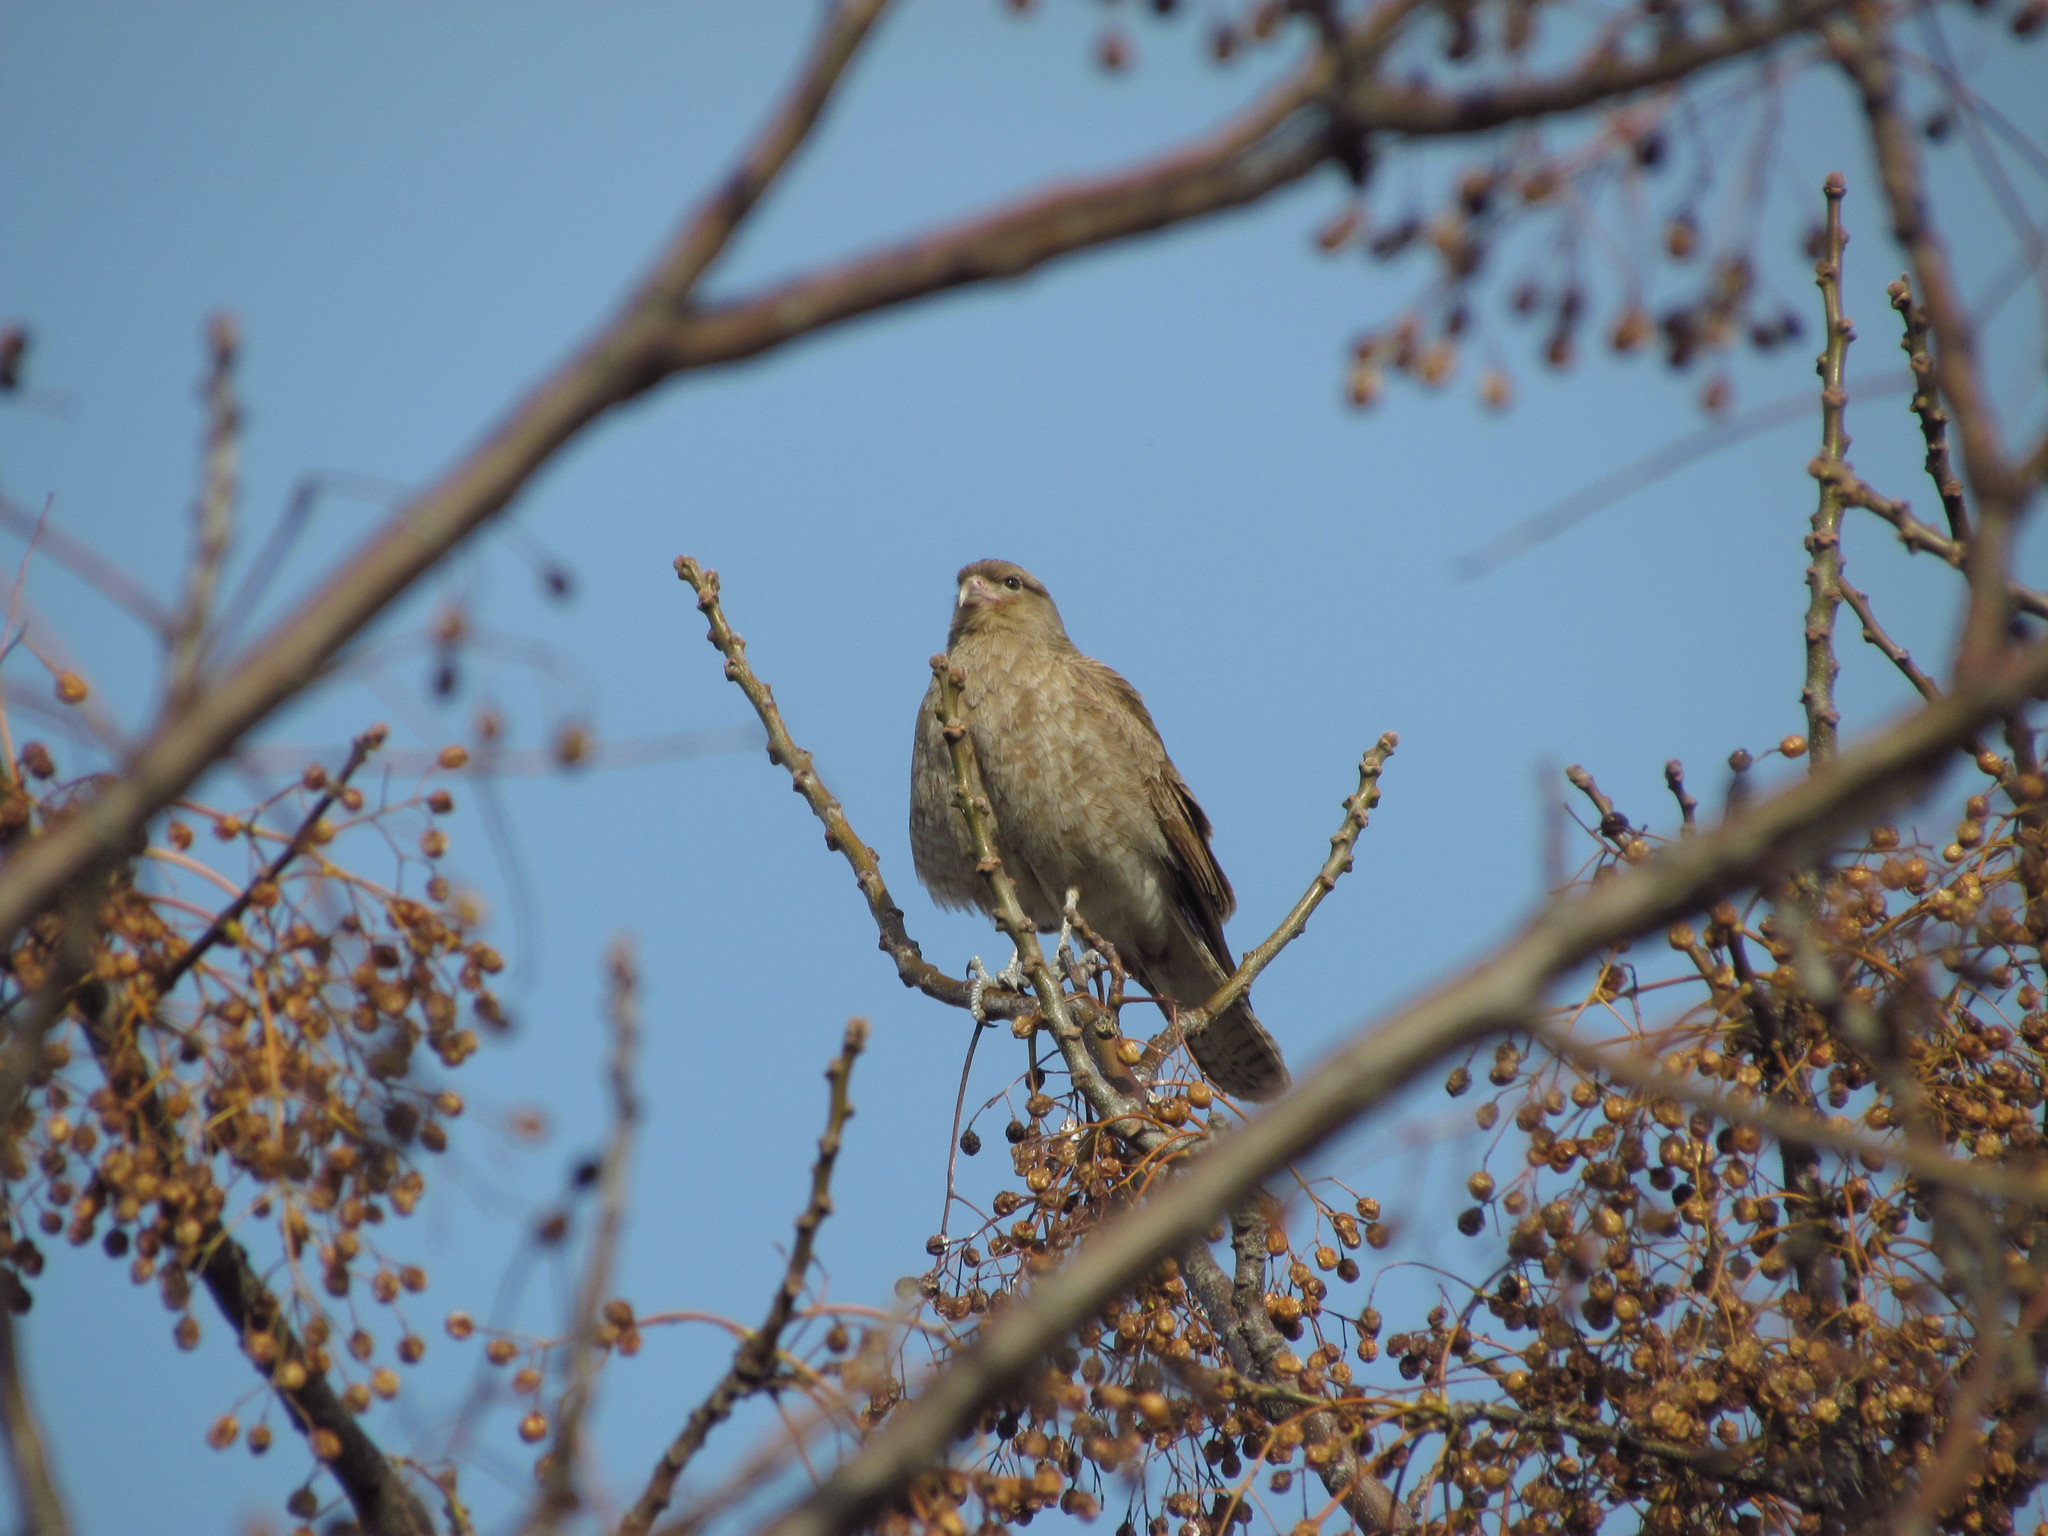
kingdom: Animalia
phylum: Chordata
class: Aves
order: Falconiformes
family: Falconidae
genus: Daptrius
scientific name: Daptrius
